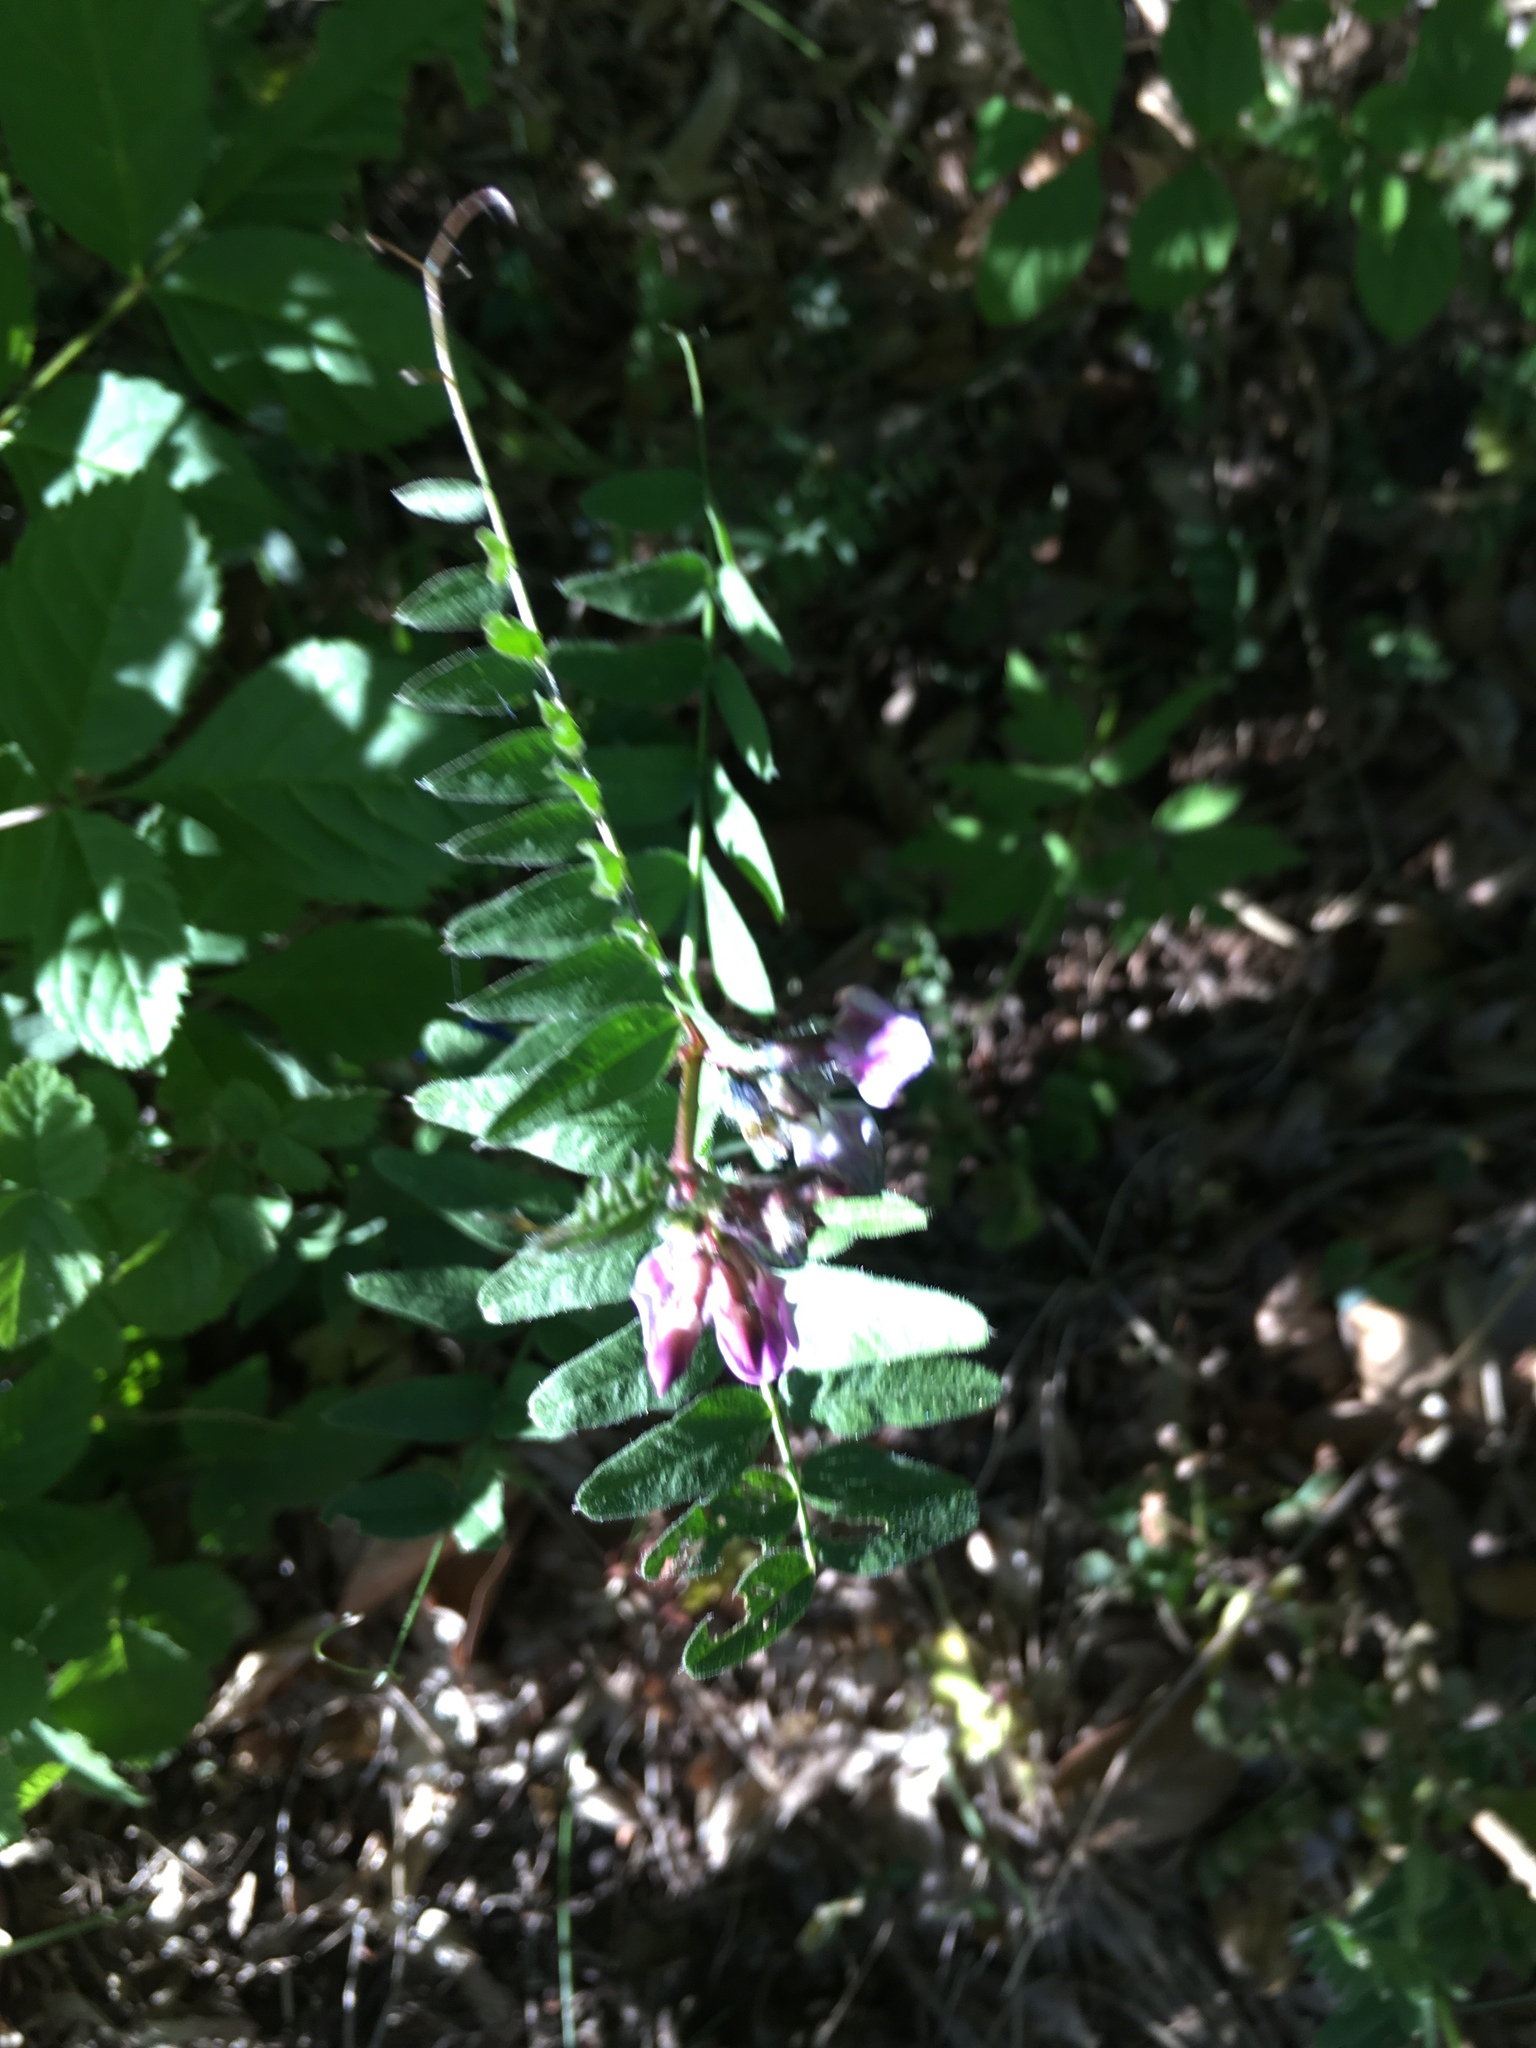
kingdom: Plantae
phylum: Tracheophyta
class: Magnoliopsida
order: Fabales
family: Fabaceae
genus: Vicia
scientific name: Vicia sepium
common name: Bush vetch
